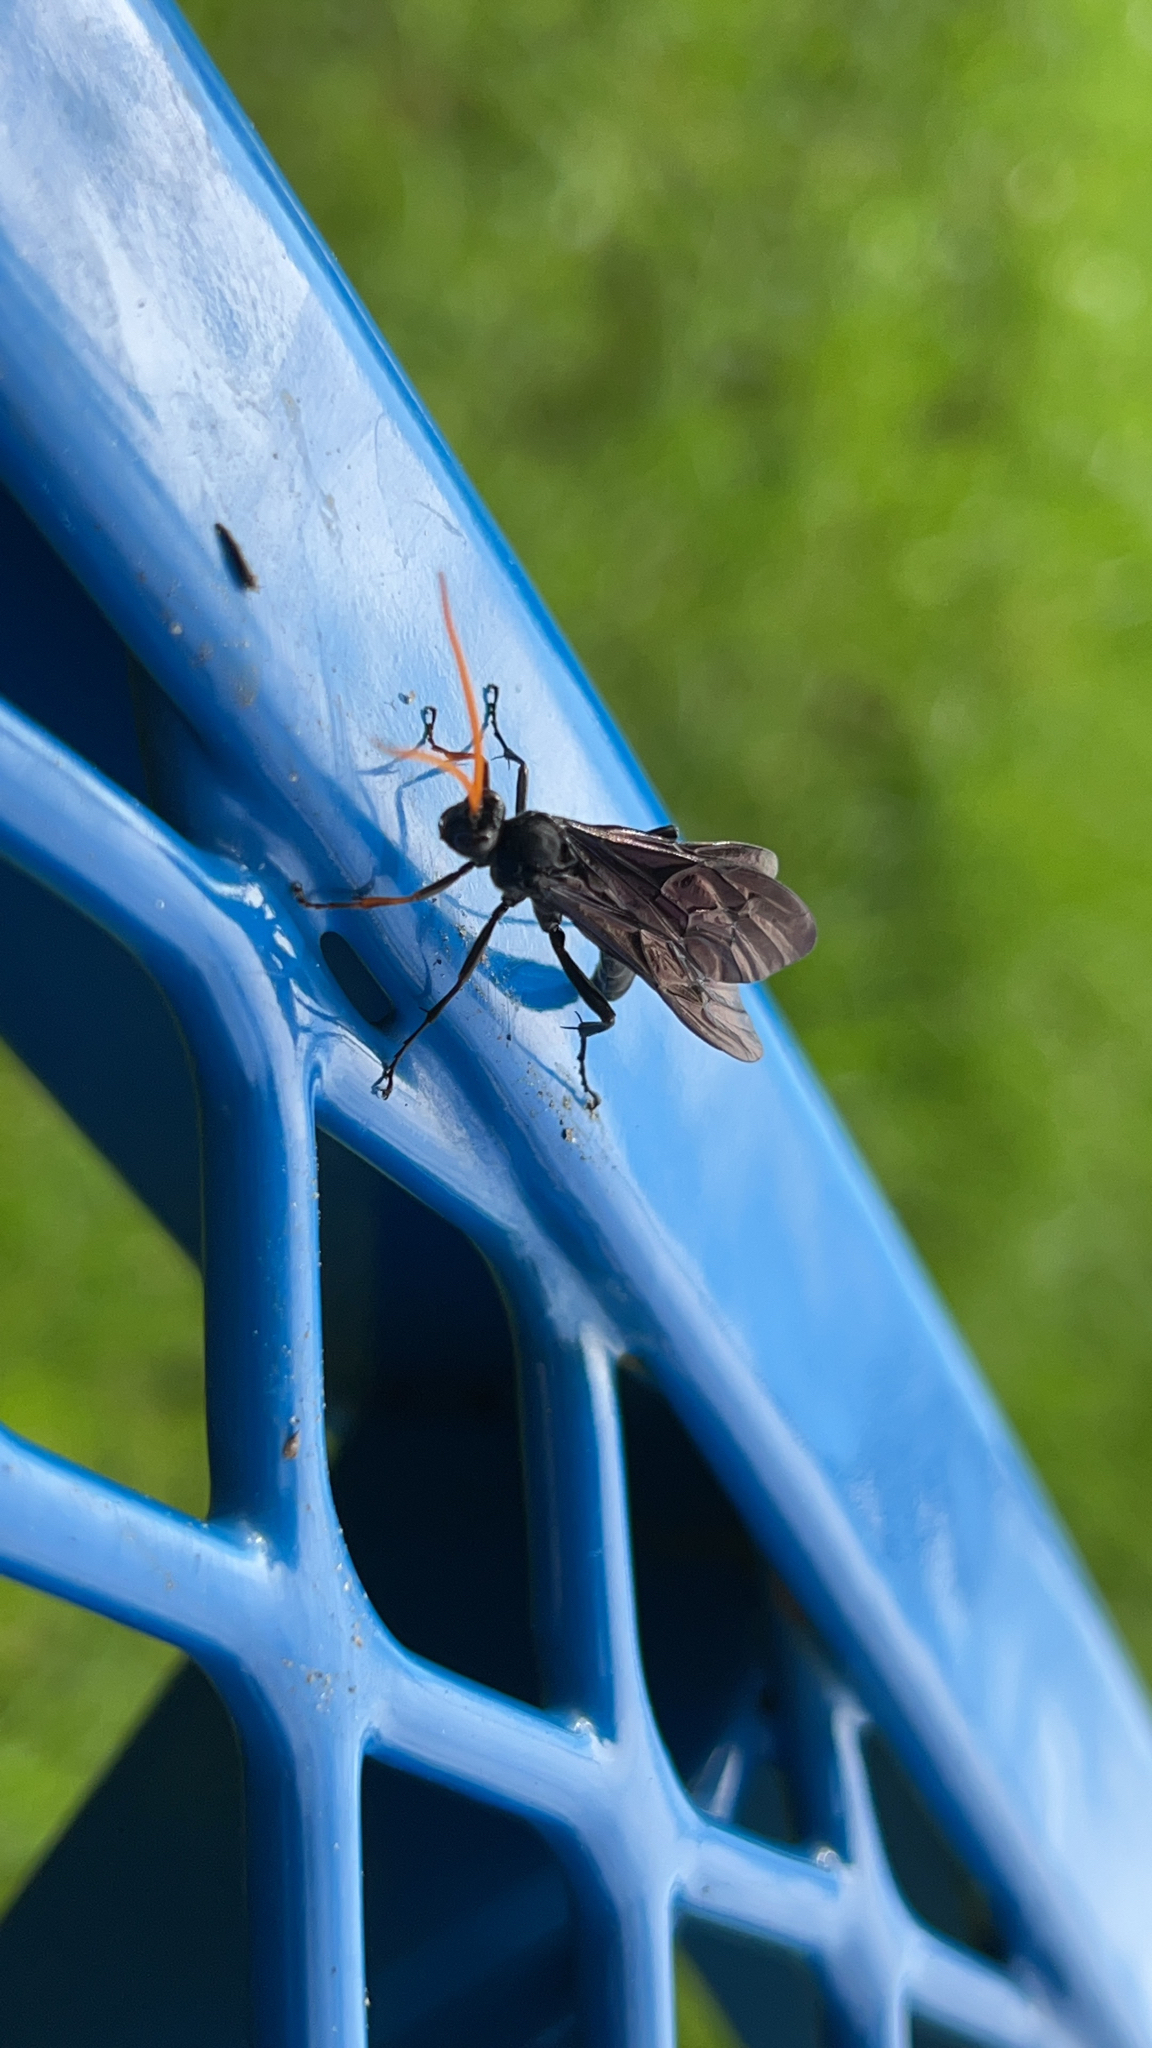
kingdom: Animalia
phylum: Arthropoda
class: Insecta
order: Hymenoptera
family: Ichneumonidae
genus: Gnamptopelta
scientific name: Gnamptopelta obsidianator
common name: Bent-shielded besieger wasp
